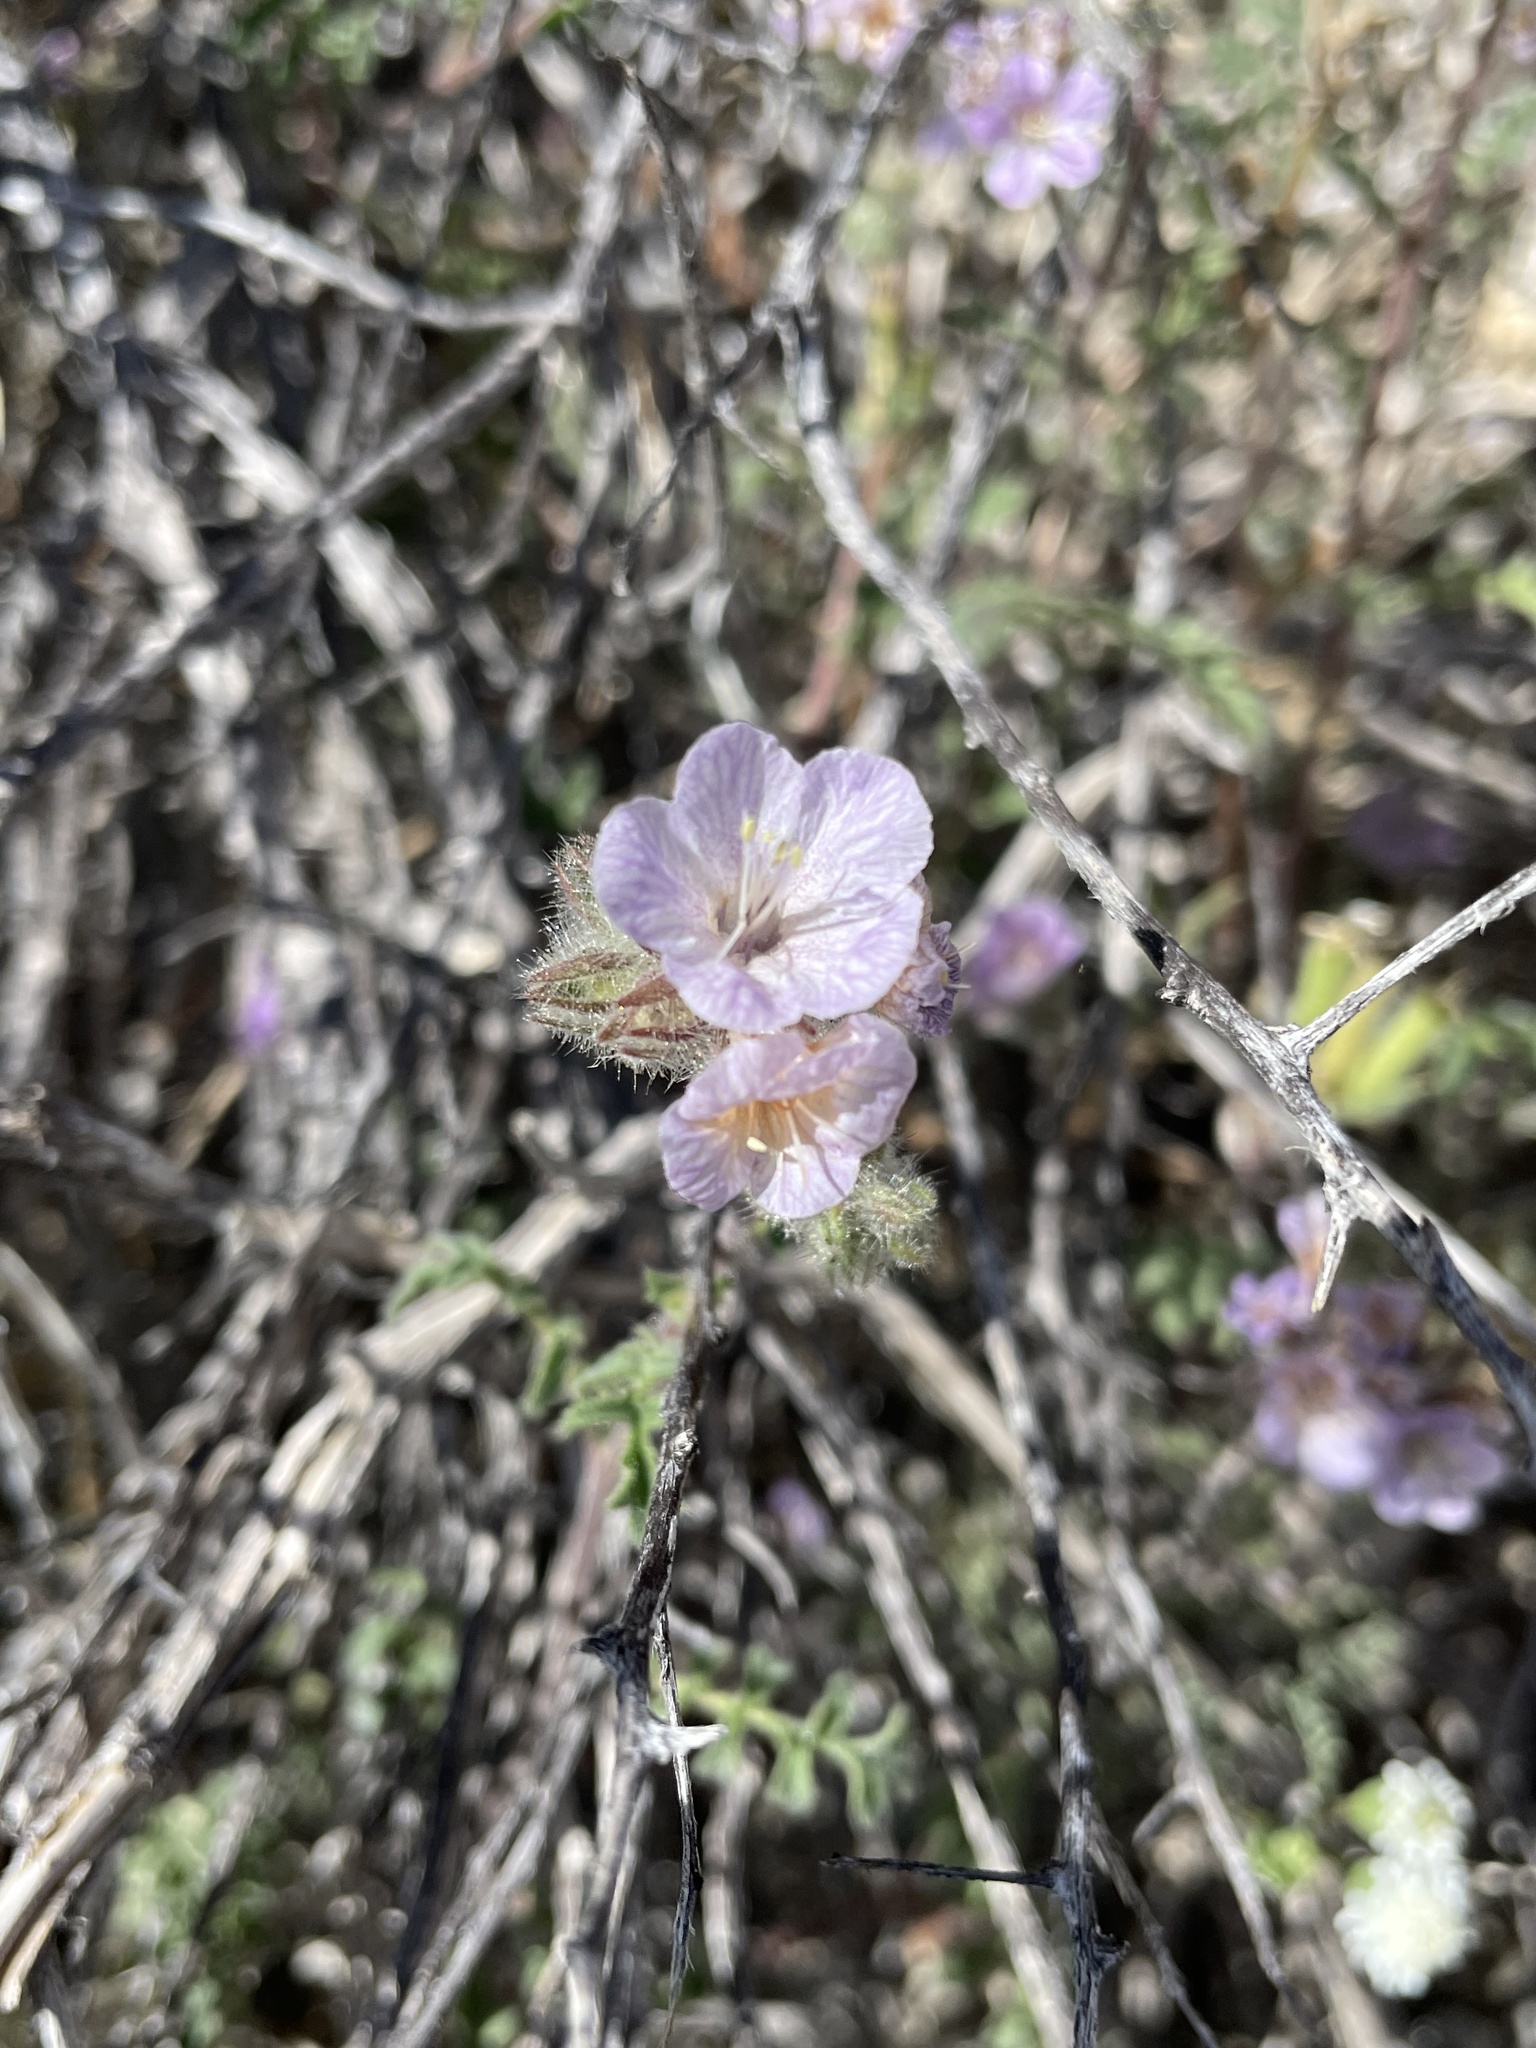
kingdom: Plantae
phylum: Tracheophyta
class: Magnoliopsida
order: Boraginales
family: Hydrophyllaceae
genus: Phacelia
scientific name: Phacelia vallis-mortae
